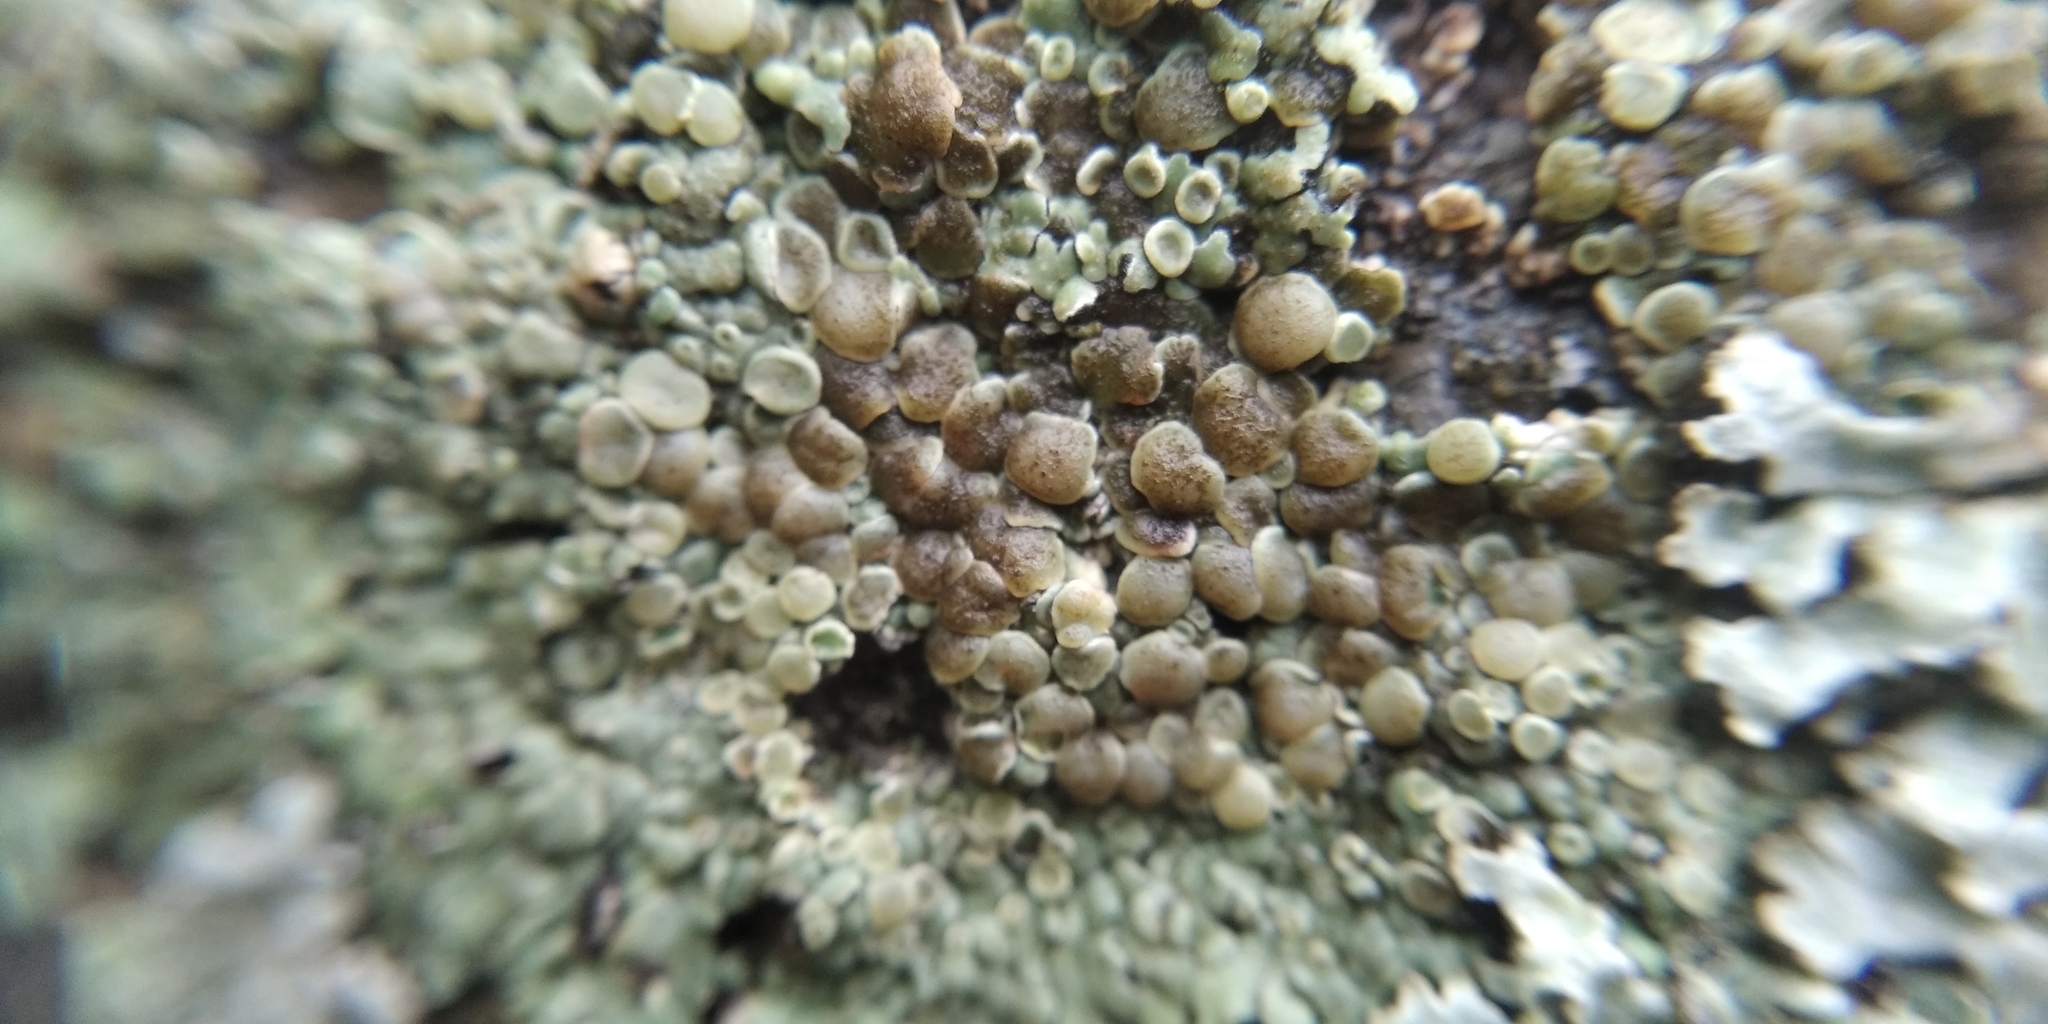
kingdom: Fungi
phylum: Ascomycota
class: Lecanoromycetes
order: Lecanorales
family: Lecanoraceae
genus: Protoparmeliopsis
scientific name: Protoparmeliopsis muralis
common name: Stonewall rim lichen
